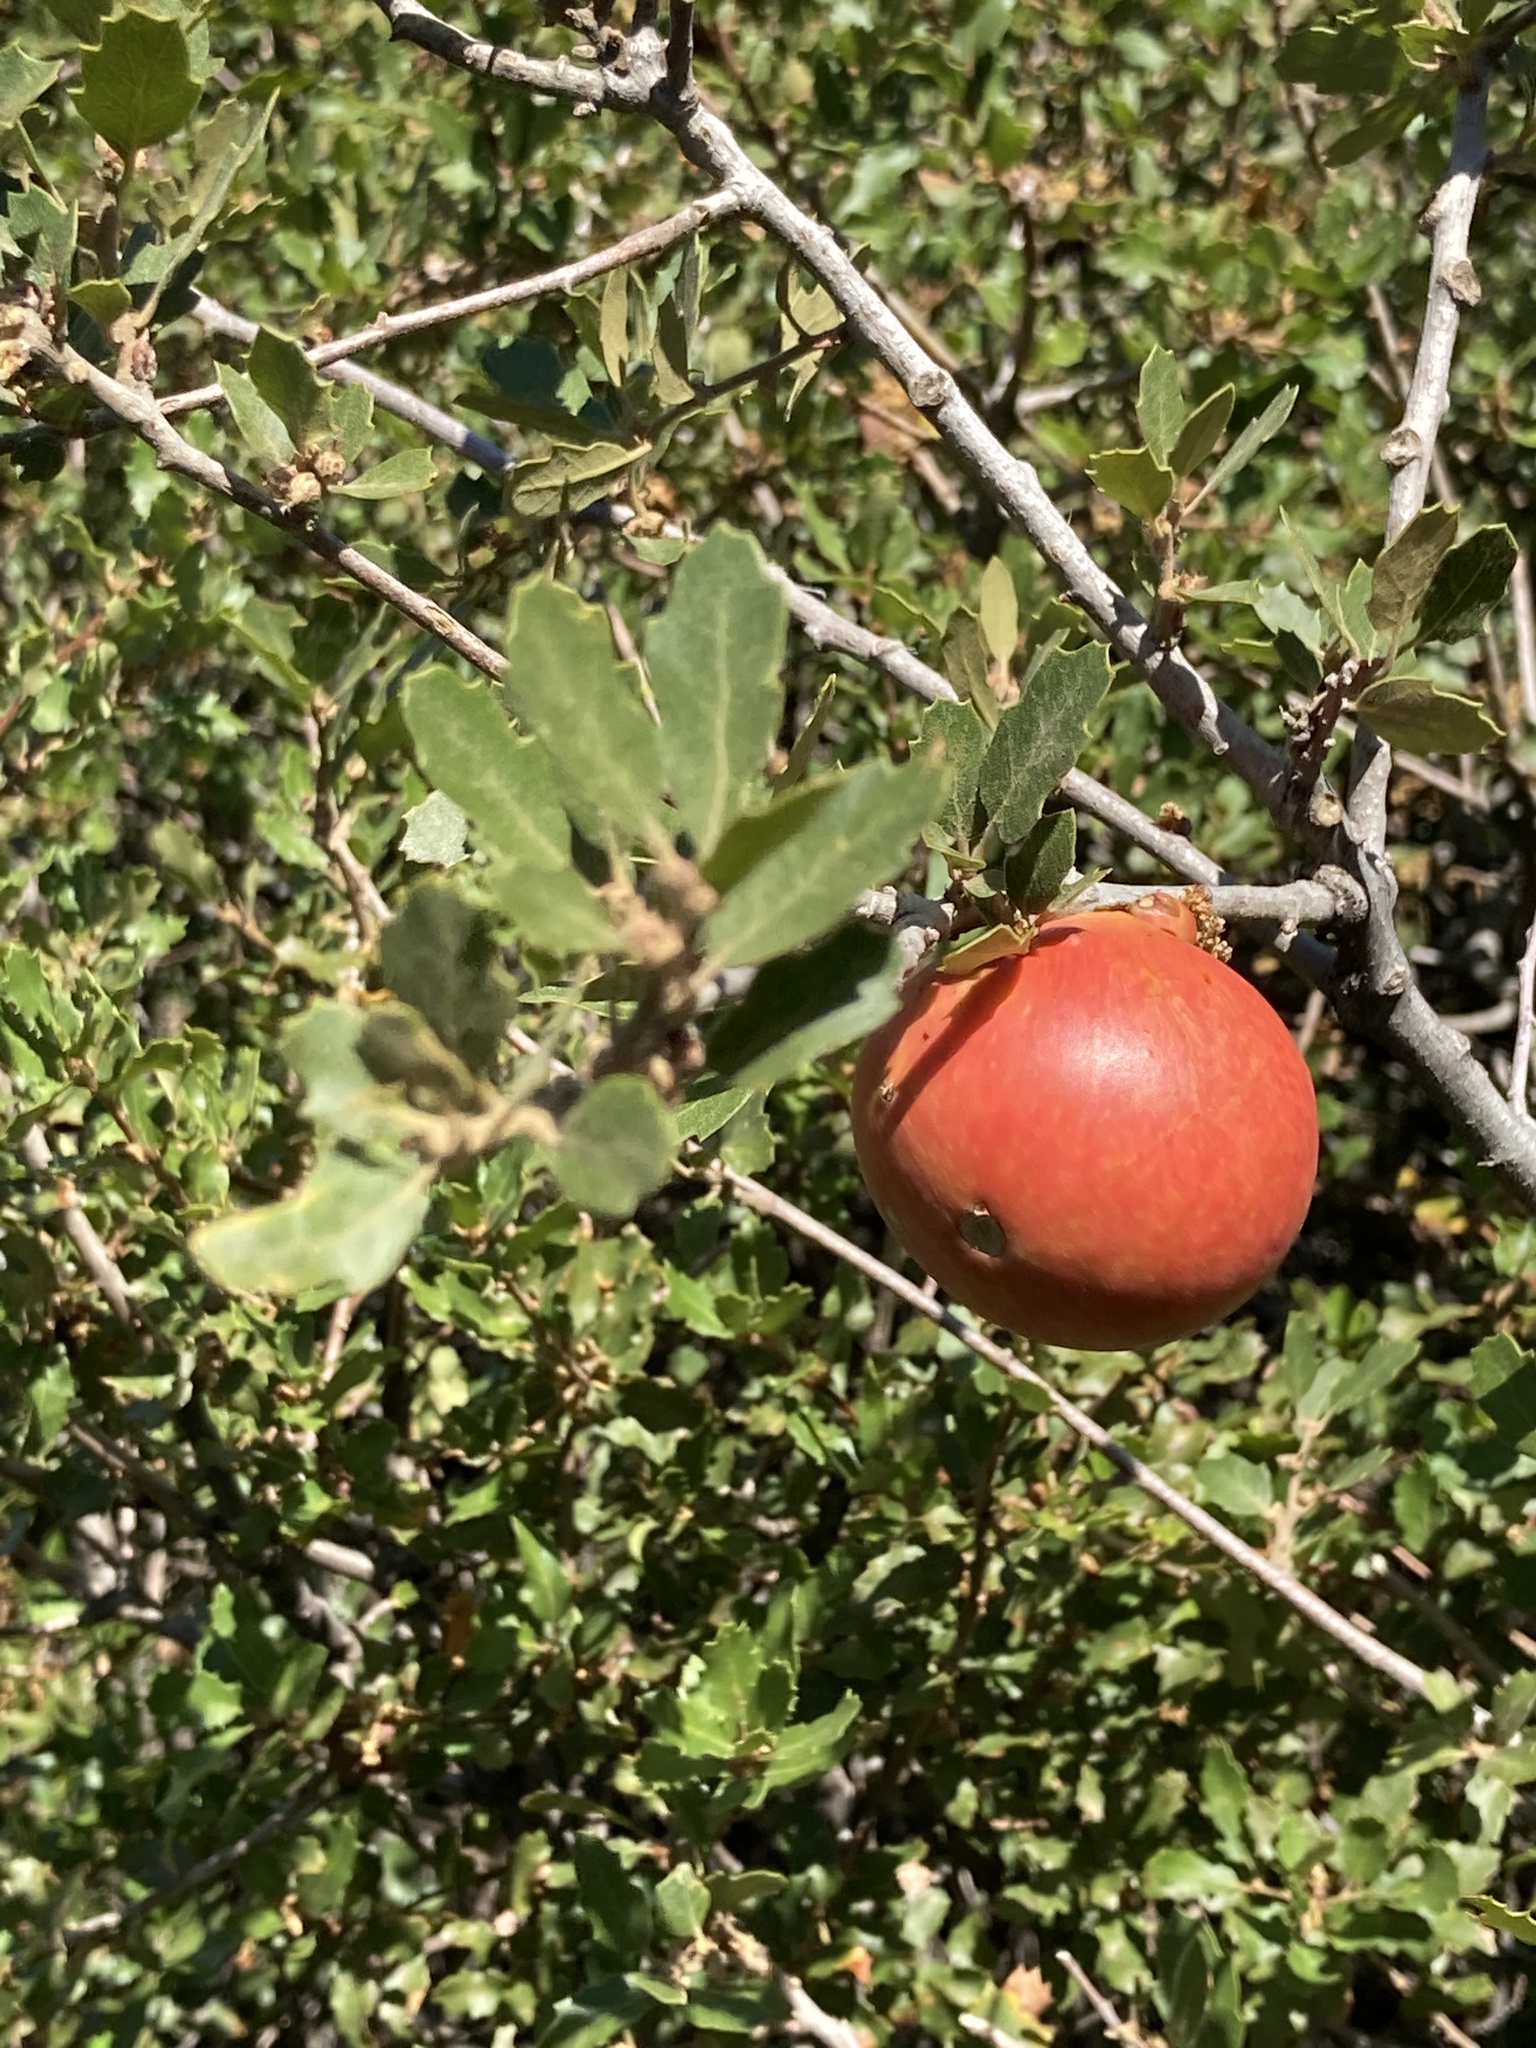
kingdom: Animalia
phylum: Arthropoda
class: Insecta
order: Hymenoptera
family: Cynipidae
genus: Andricus
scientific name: Andricus quercuscalifornicus
